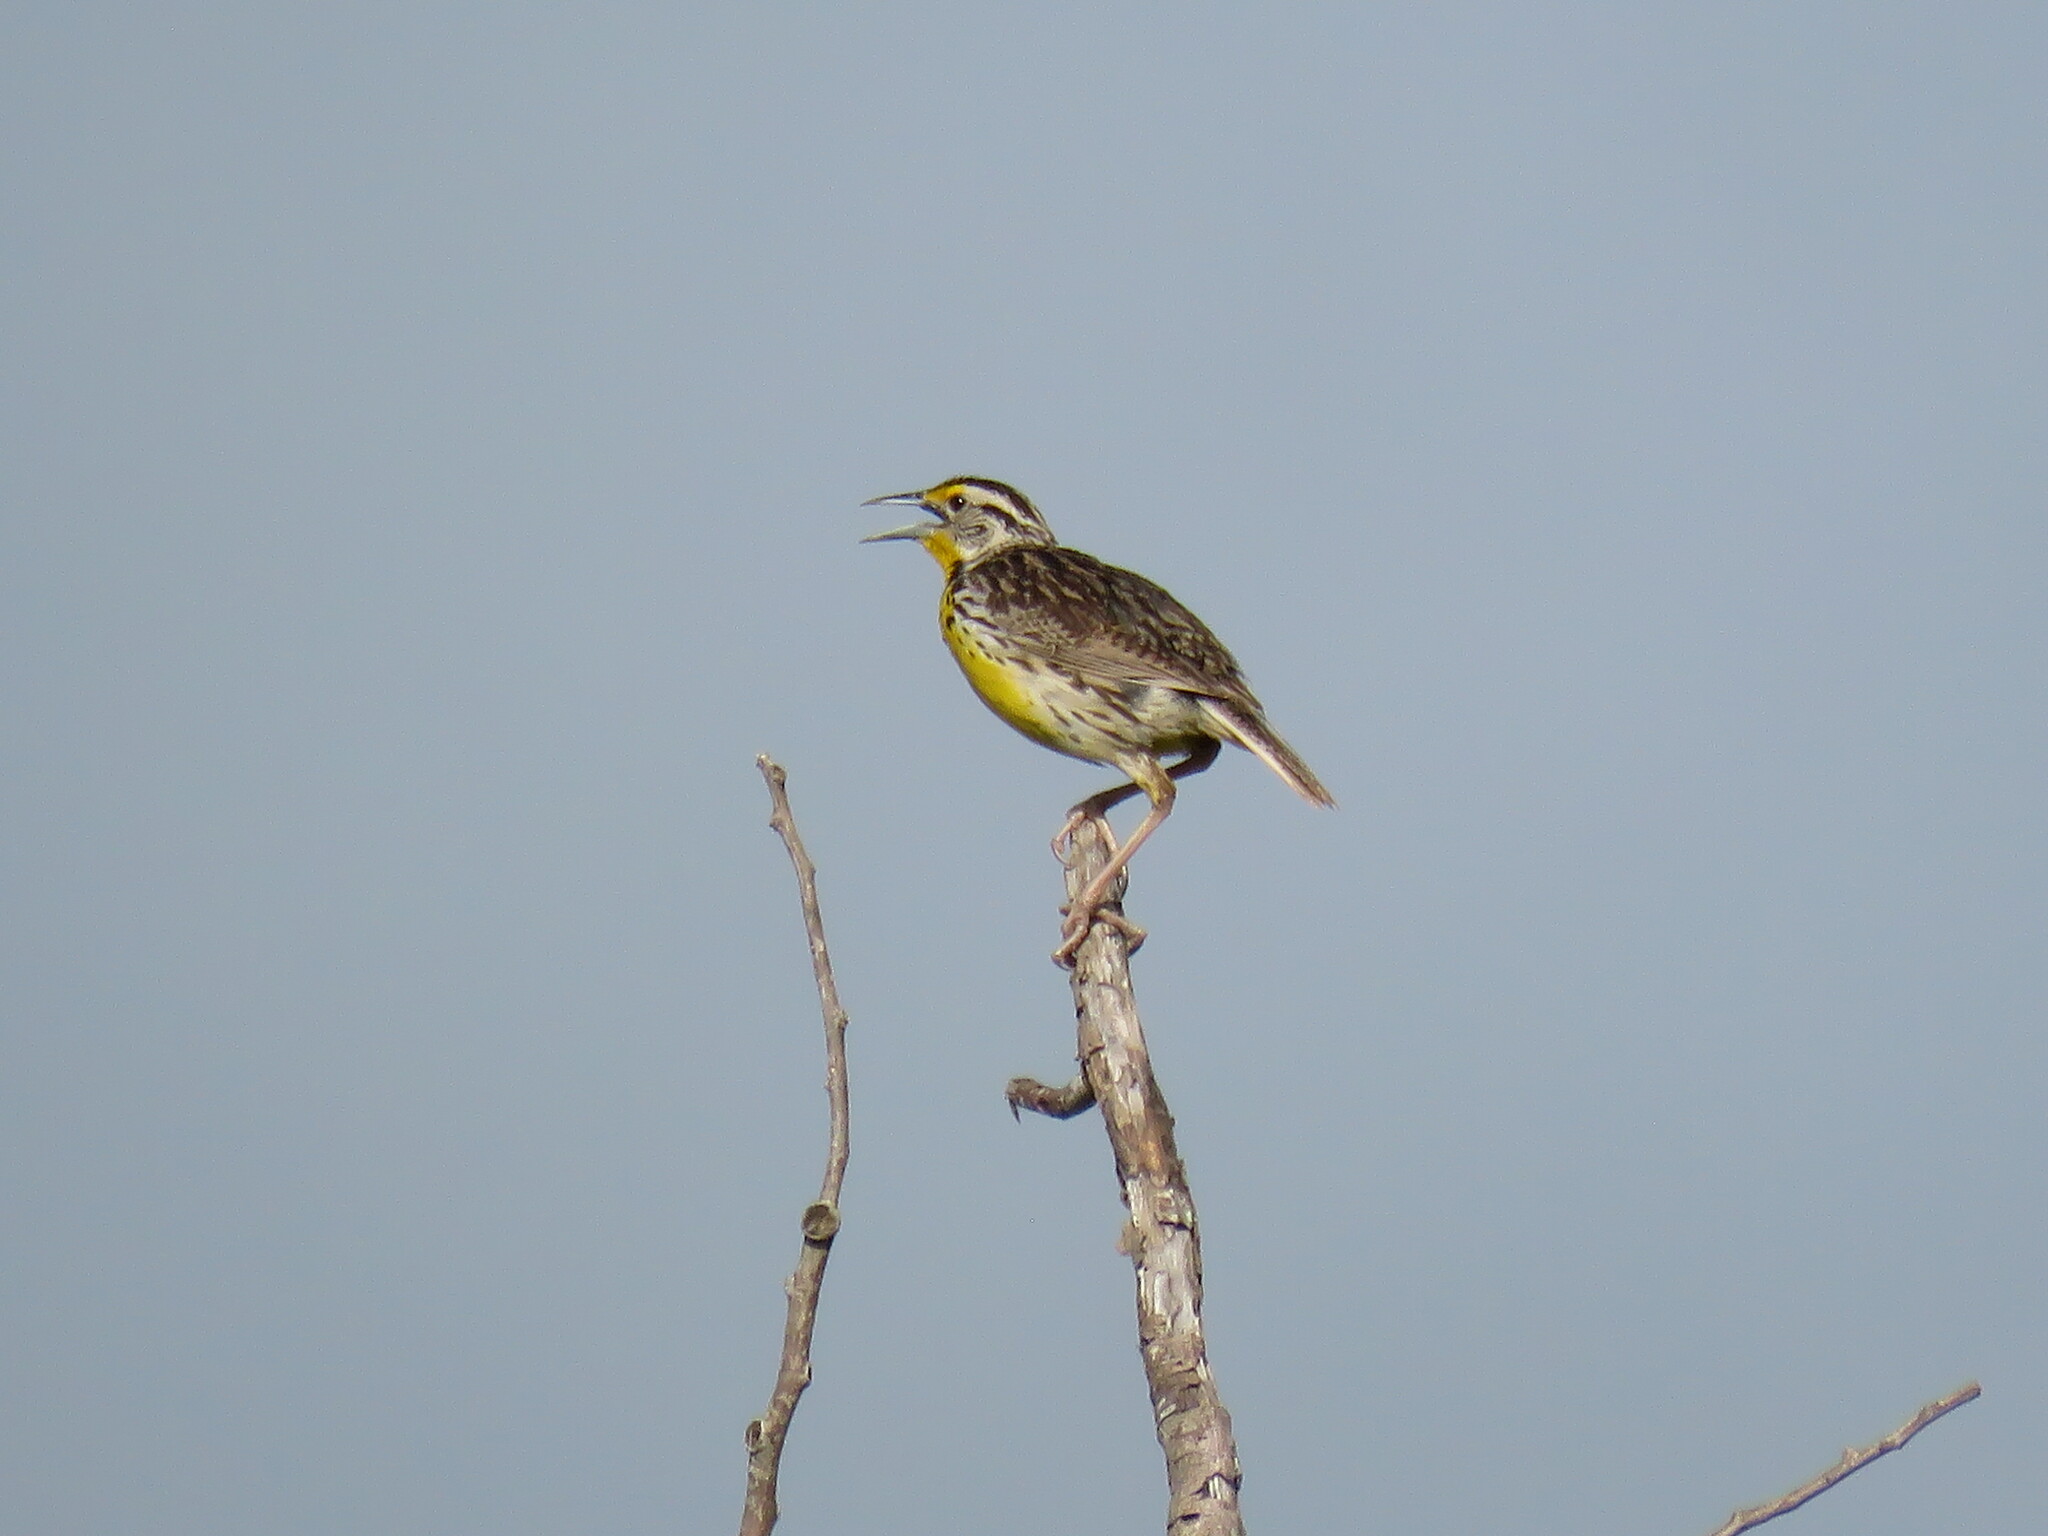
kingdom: Animalia
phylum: Chordata
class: Aves
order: Passeriformes
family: Icteridae
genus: Sturnella
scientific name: Sturnella magna
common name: Eastern meadowlark
